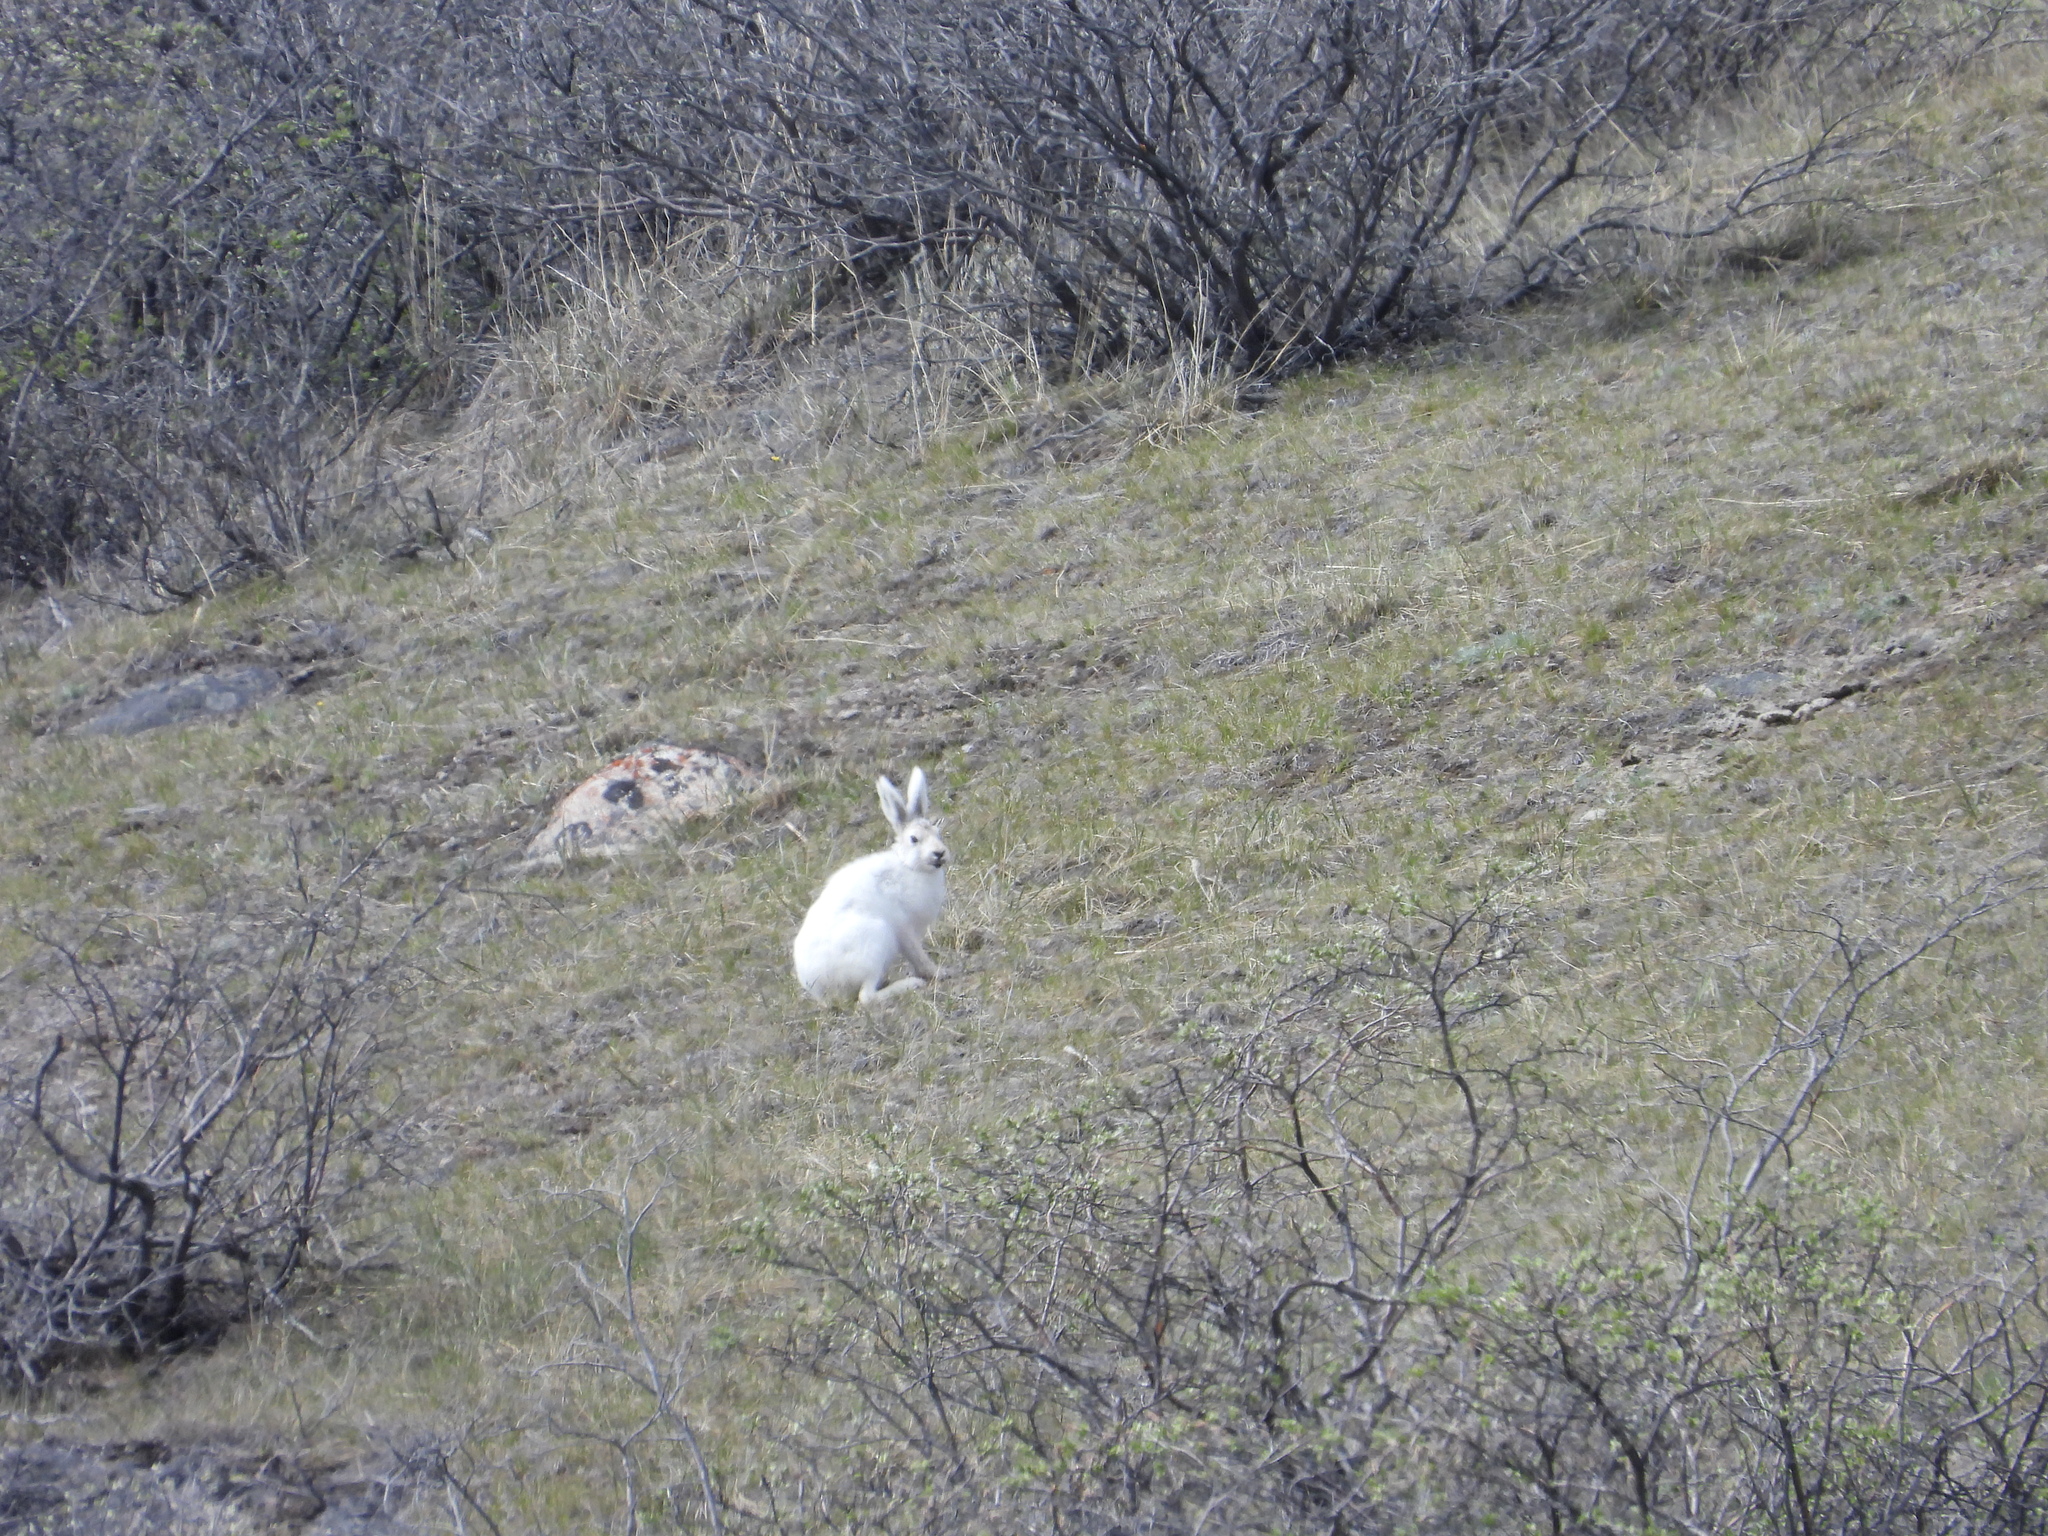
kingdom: Animalia
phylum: Chordata
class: Mammalia
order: Lagomorpha
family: Leporidae
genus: Lepus
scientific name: Lepus arcticus
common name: Arctic hare
